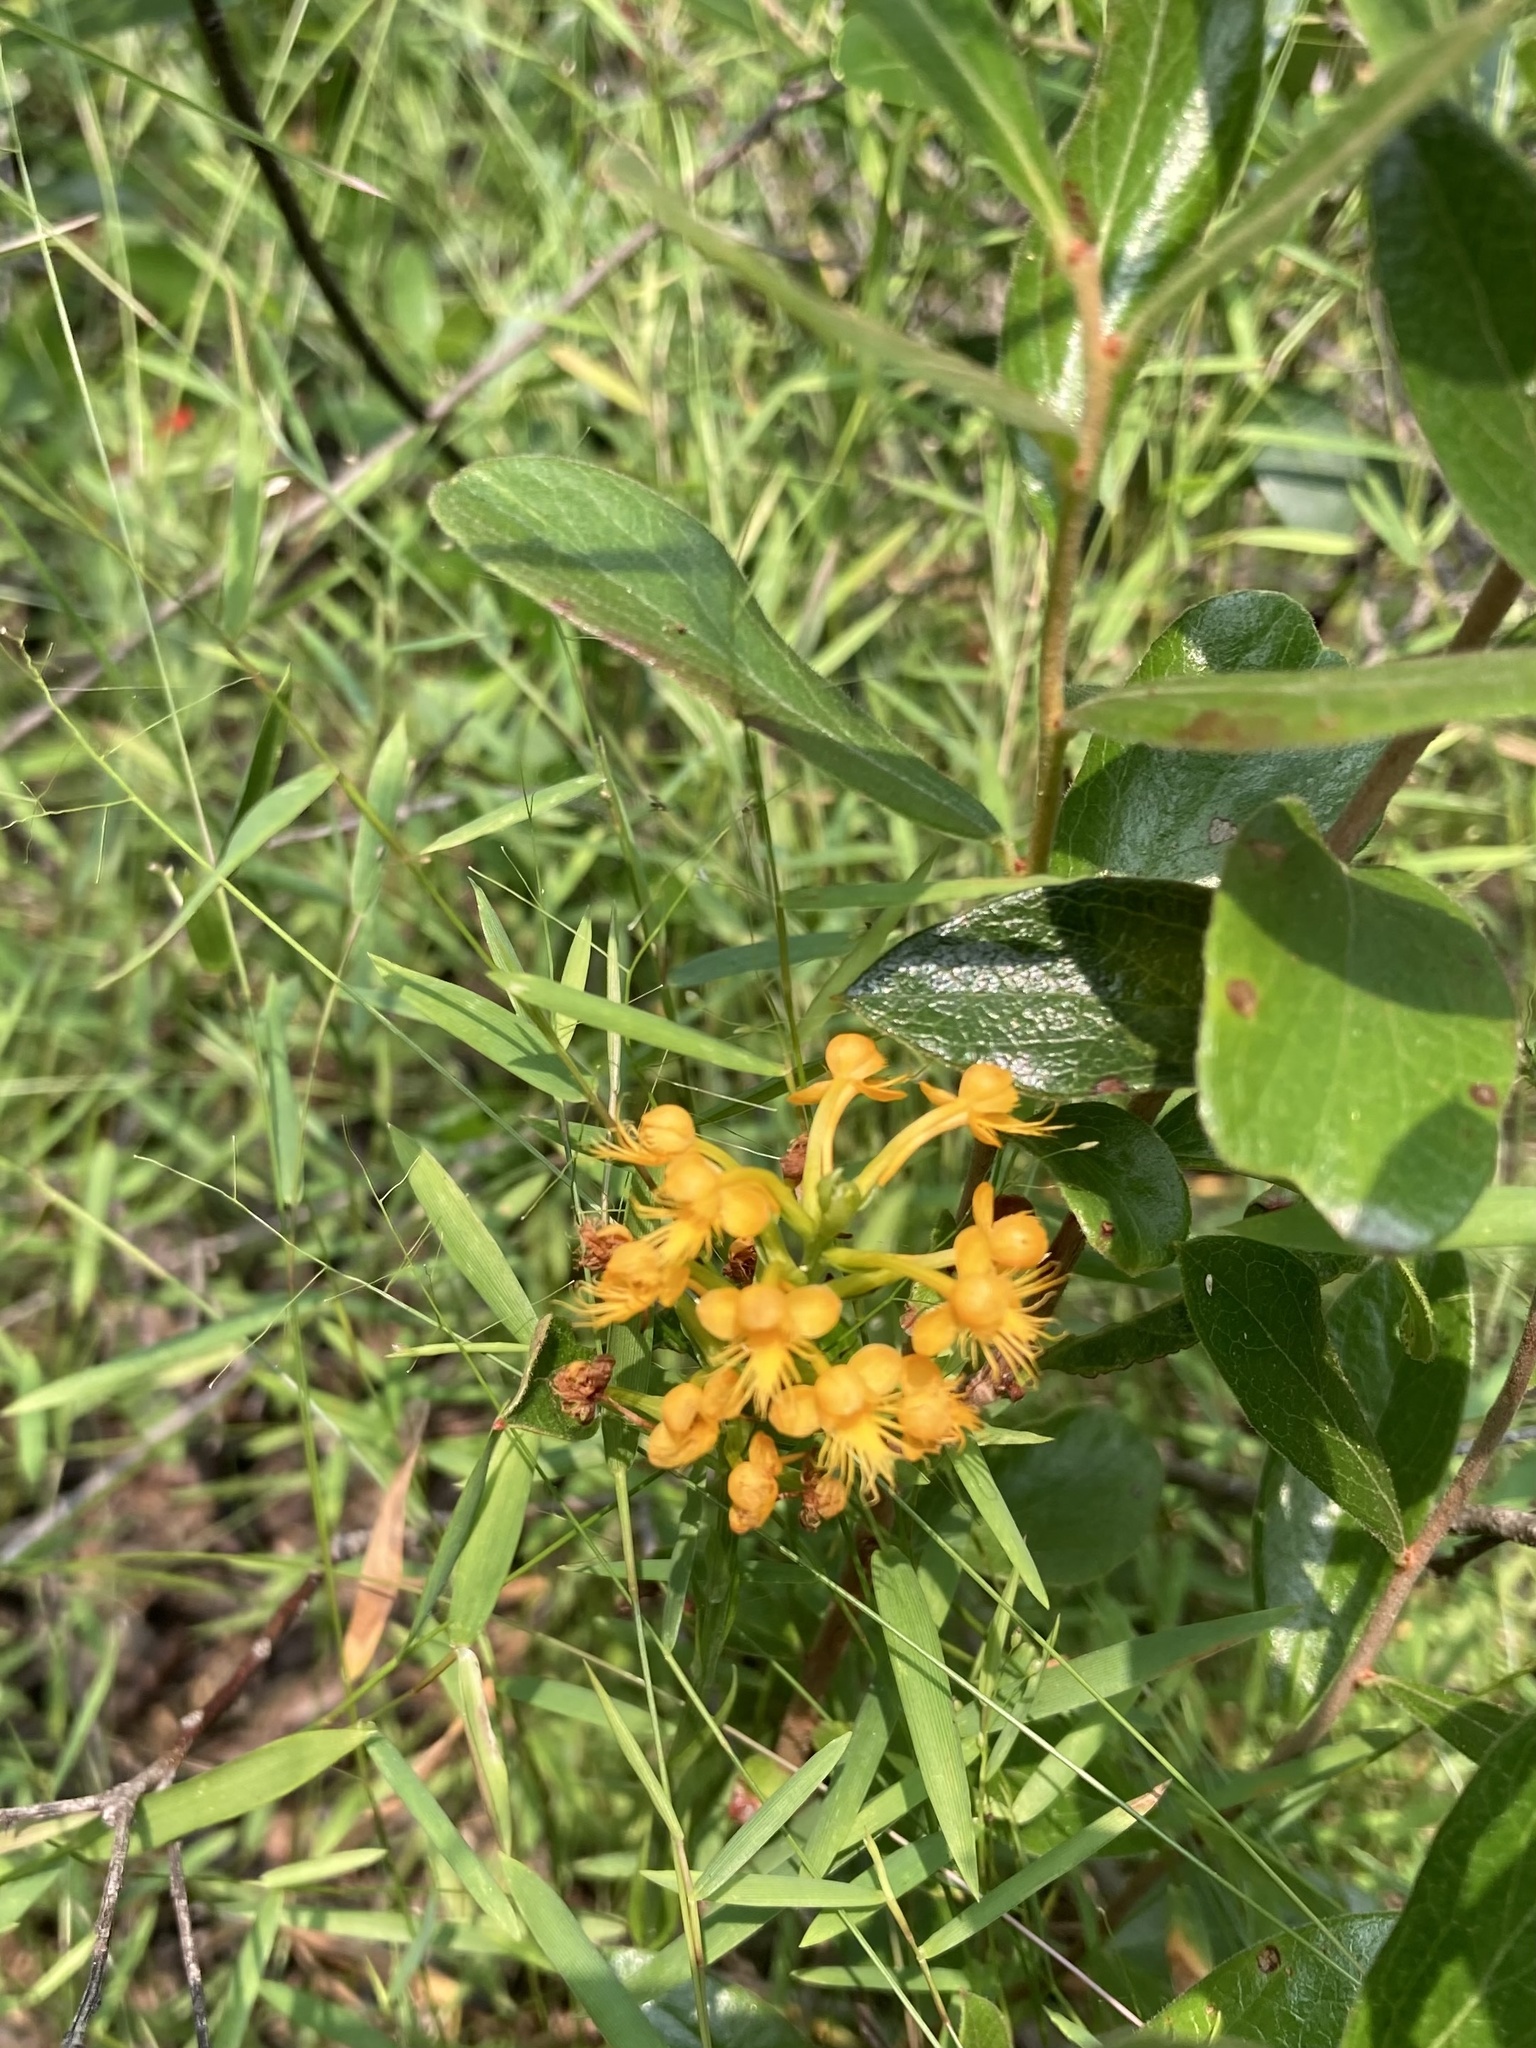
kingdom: Plantae
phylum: Tracheophyta
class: Liliopsida
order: Asparagales
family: Orchidaceae
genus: Platanthera
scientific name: Platanthera cristata
